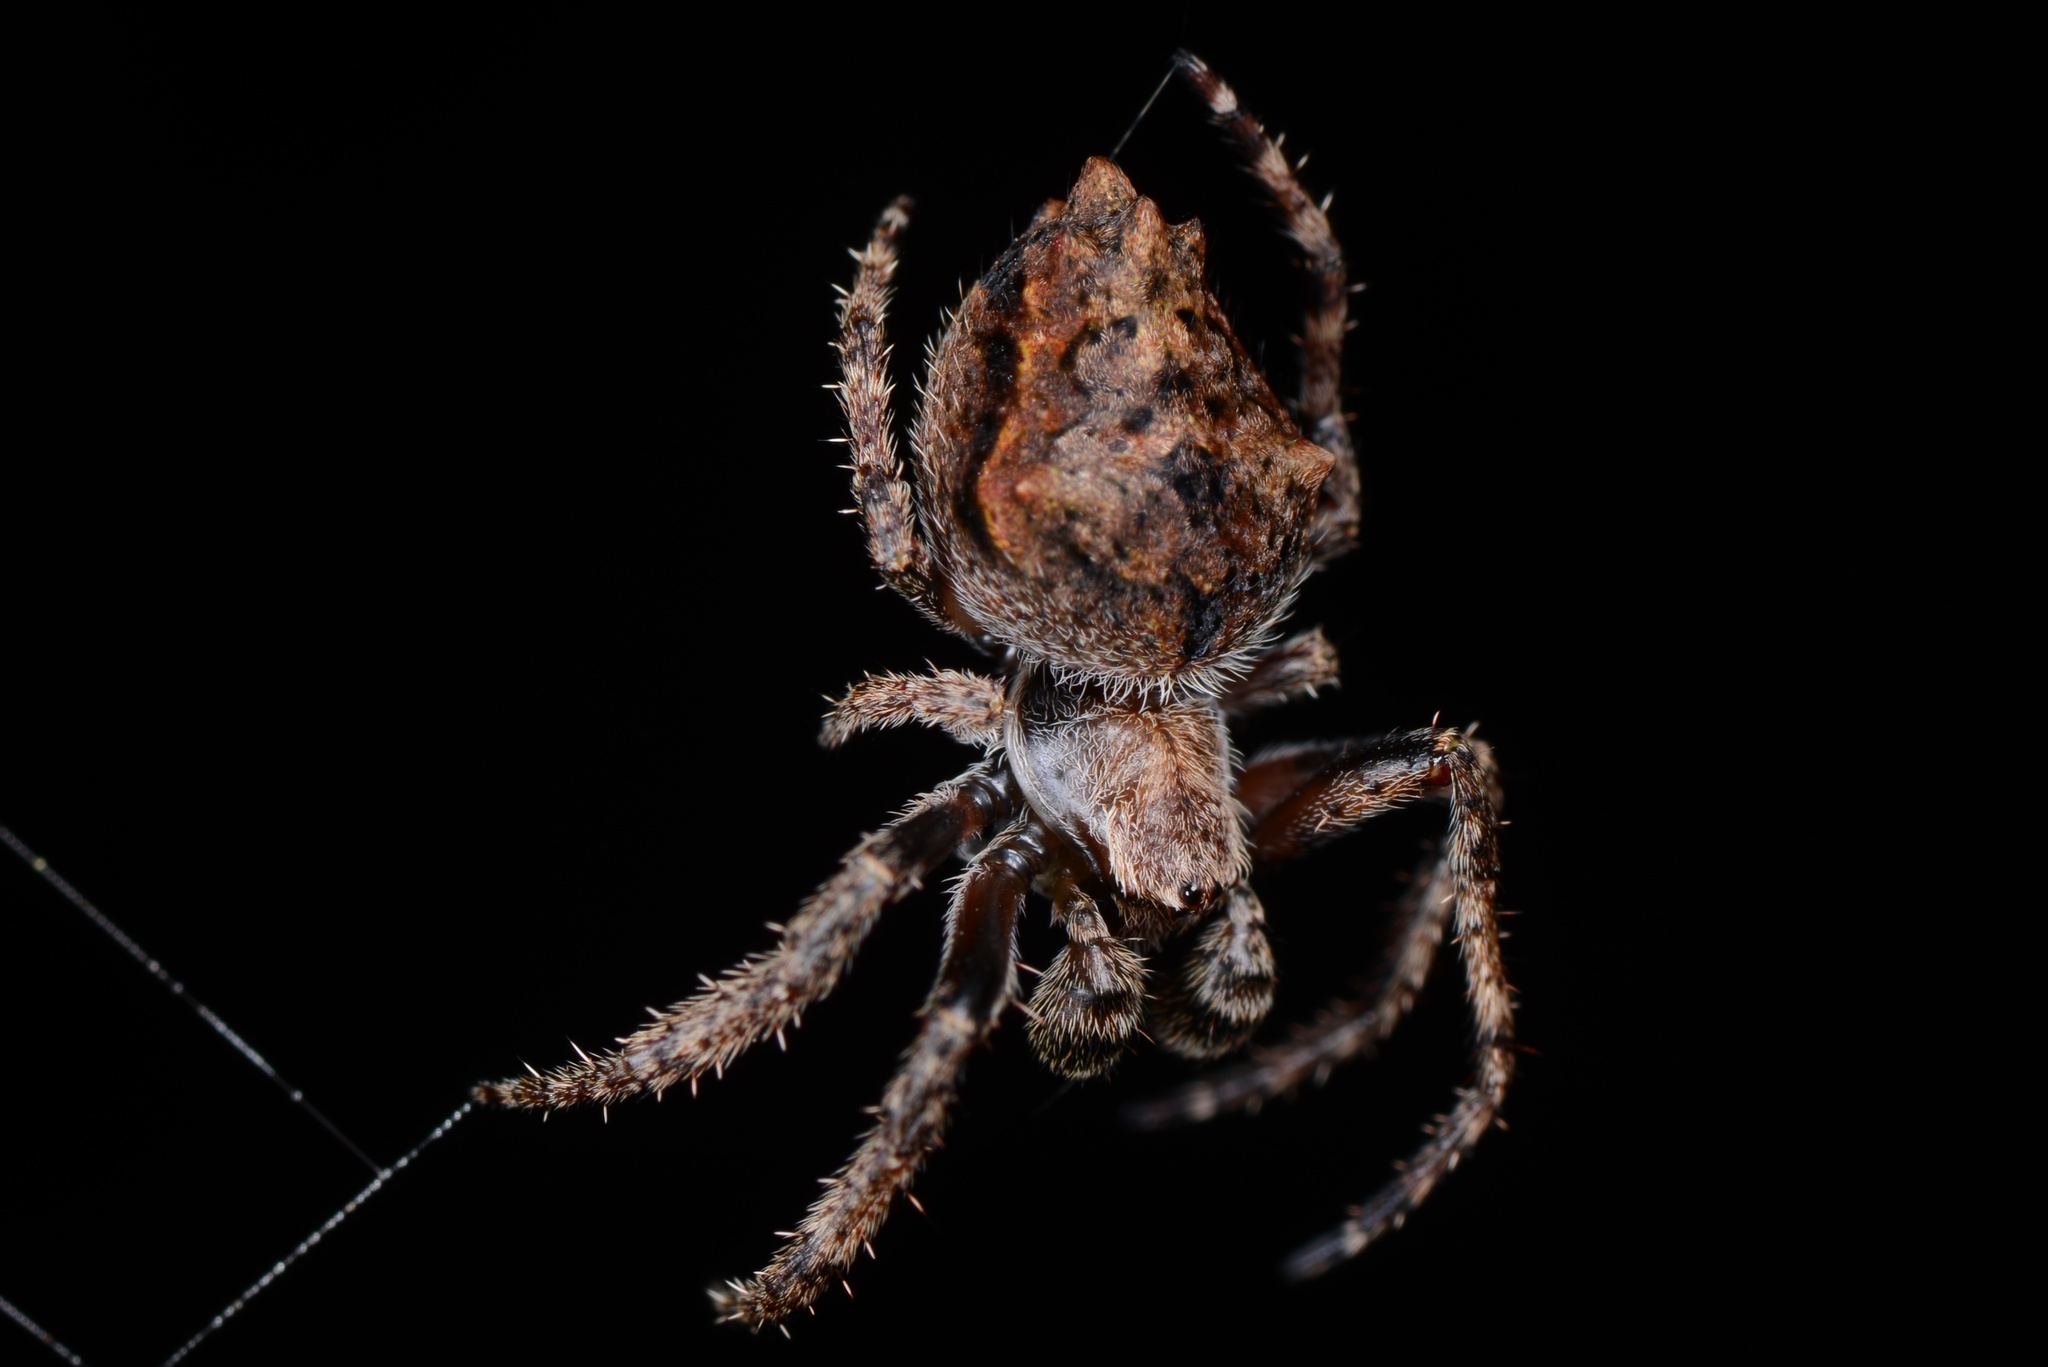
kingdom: Animalia
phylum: Arthropoda
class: Arachnida
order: Araneae
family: Araneidae
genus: Eriophora
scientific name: Eriophora pustulosa
